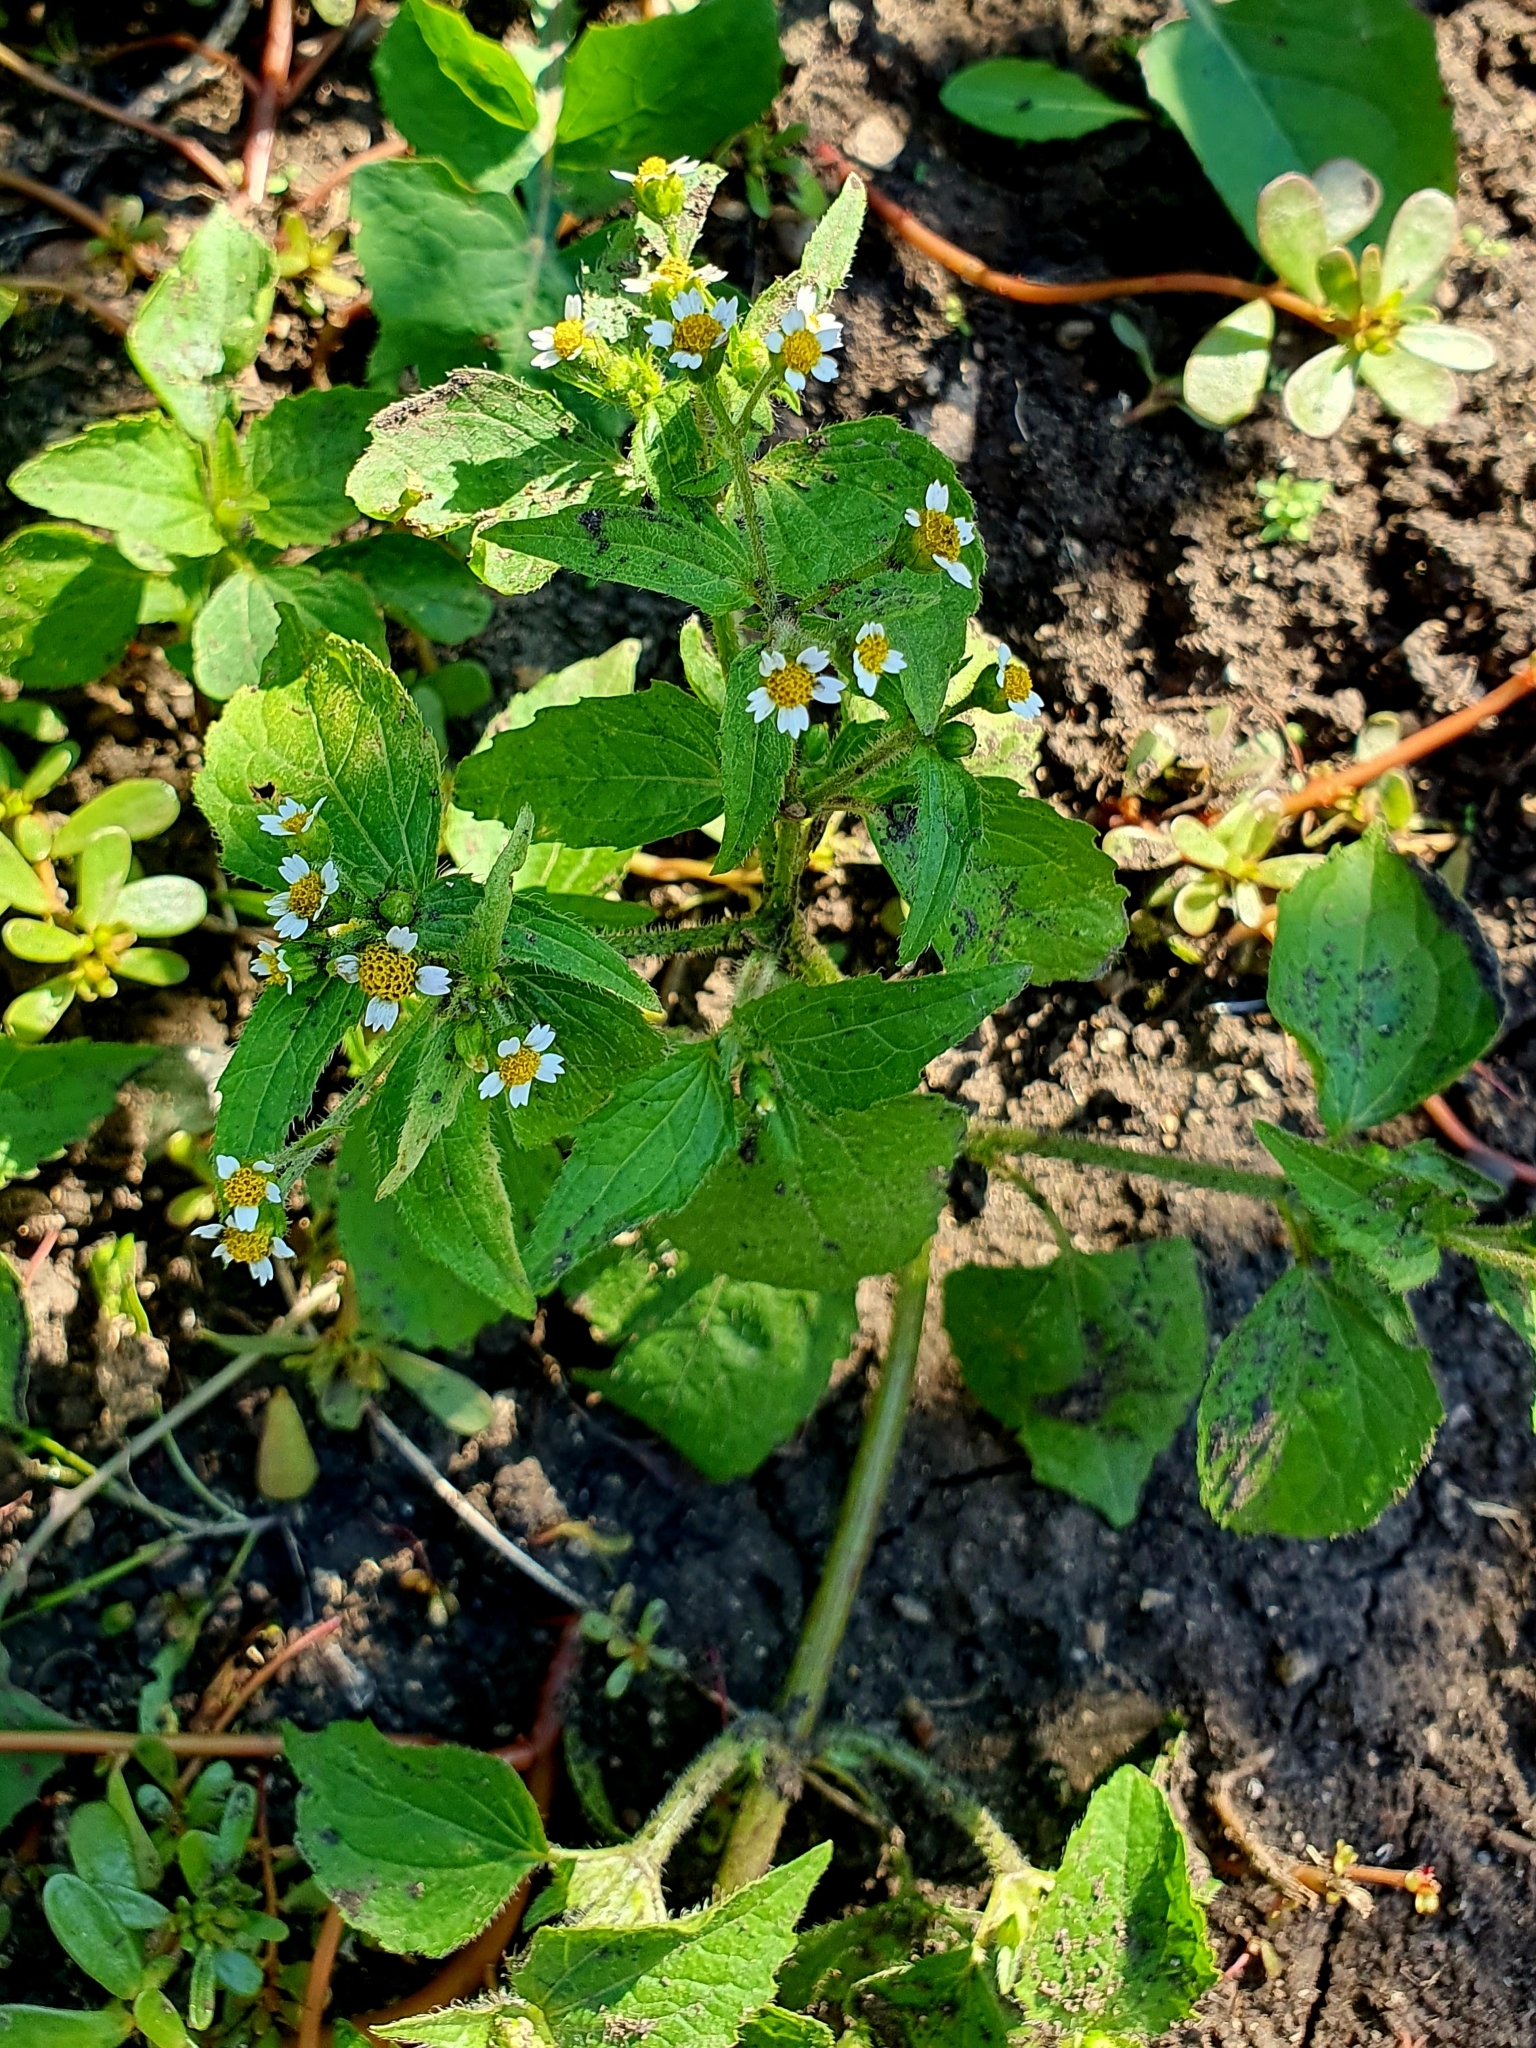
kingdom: Plantae
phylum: Tracheophyta
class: Magnoliopsida
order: Asterales
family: Asteraceae
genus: Galinsoga
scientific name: Galinsoga quadriradiata
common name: Shaggy soldier
